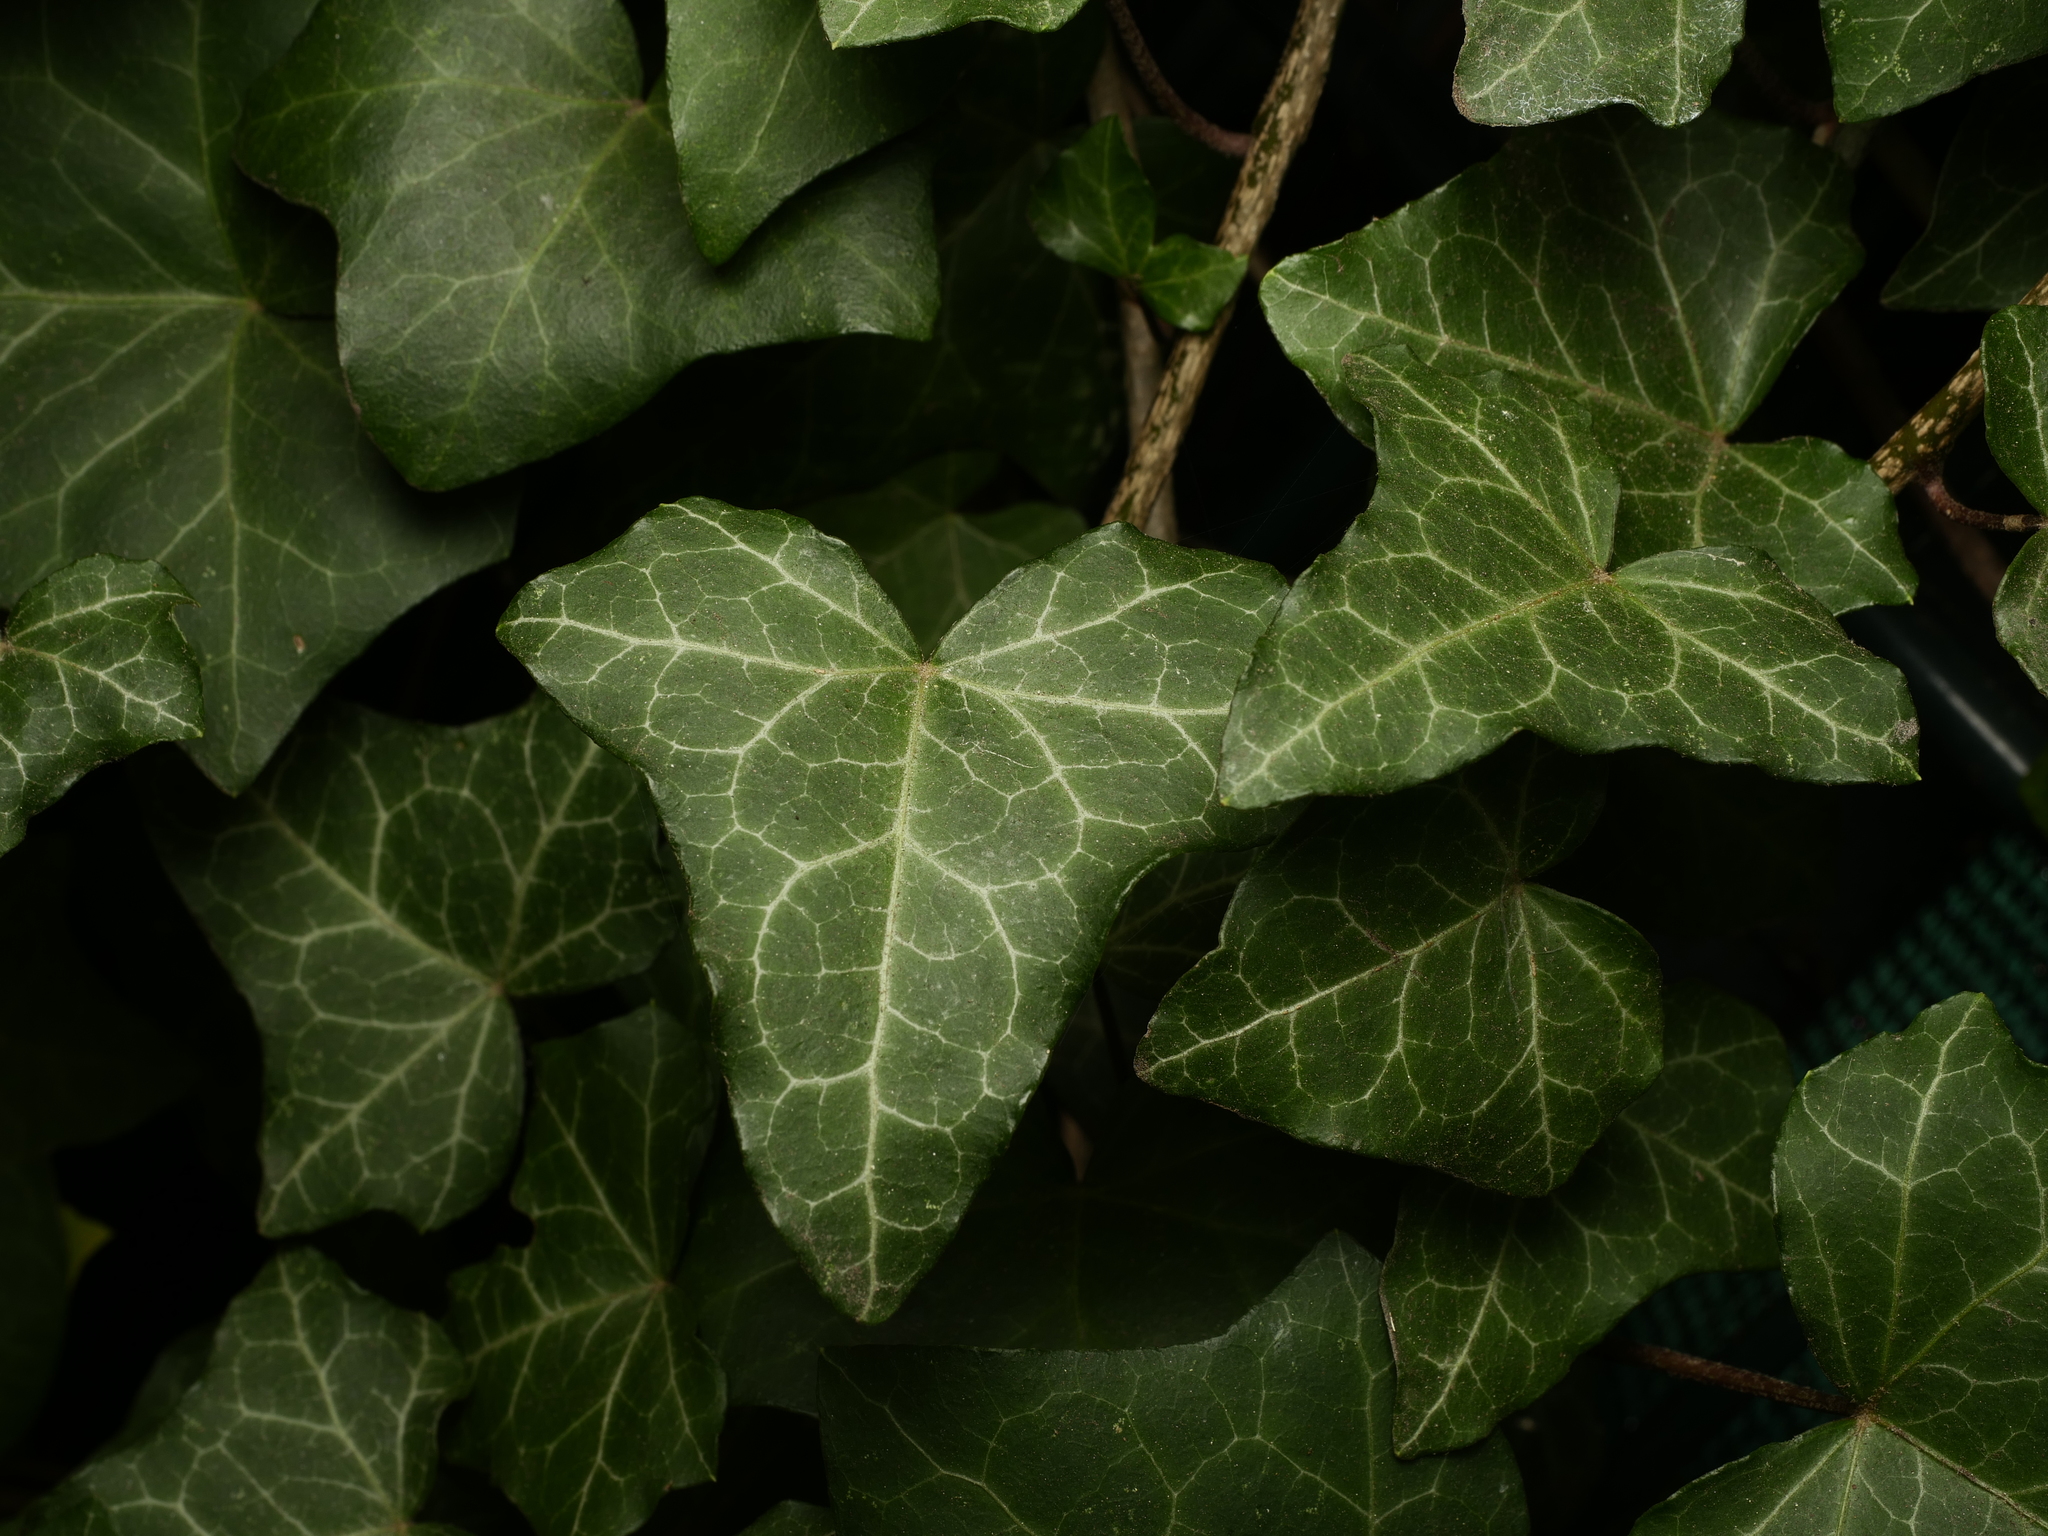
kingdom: Plantae
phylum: Tracheophyta
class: Magnoliopsida
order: Apiales
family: Araliaceae
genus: Hedera
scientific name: Hedera helix
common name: Ivy
